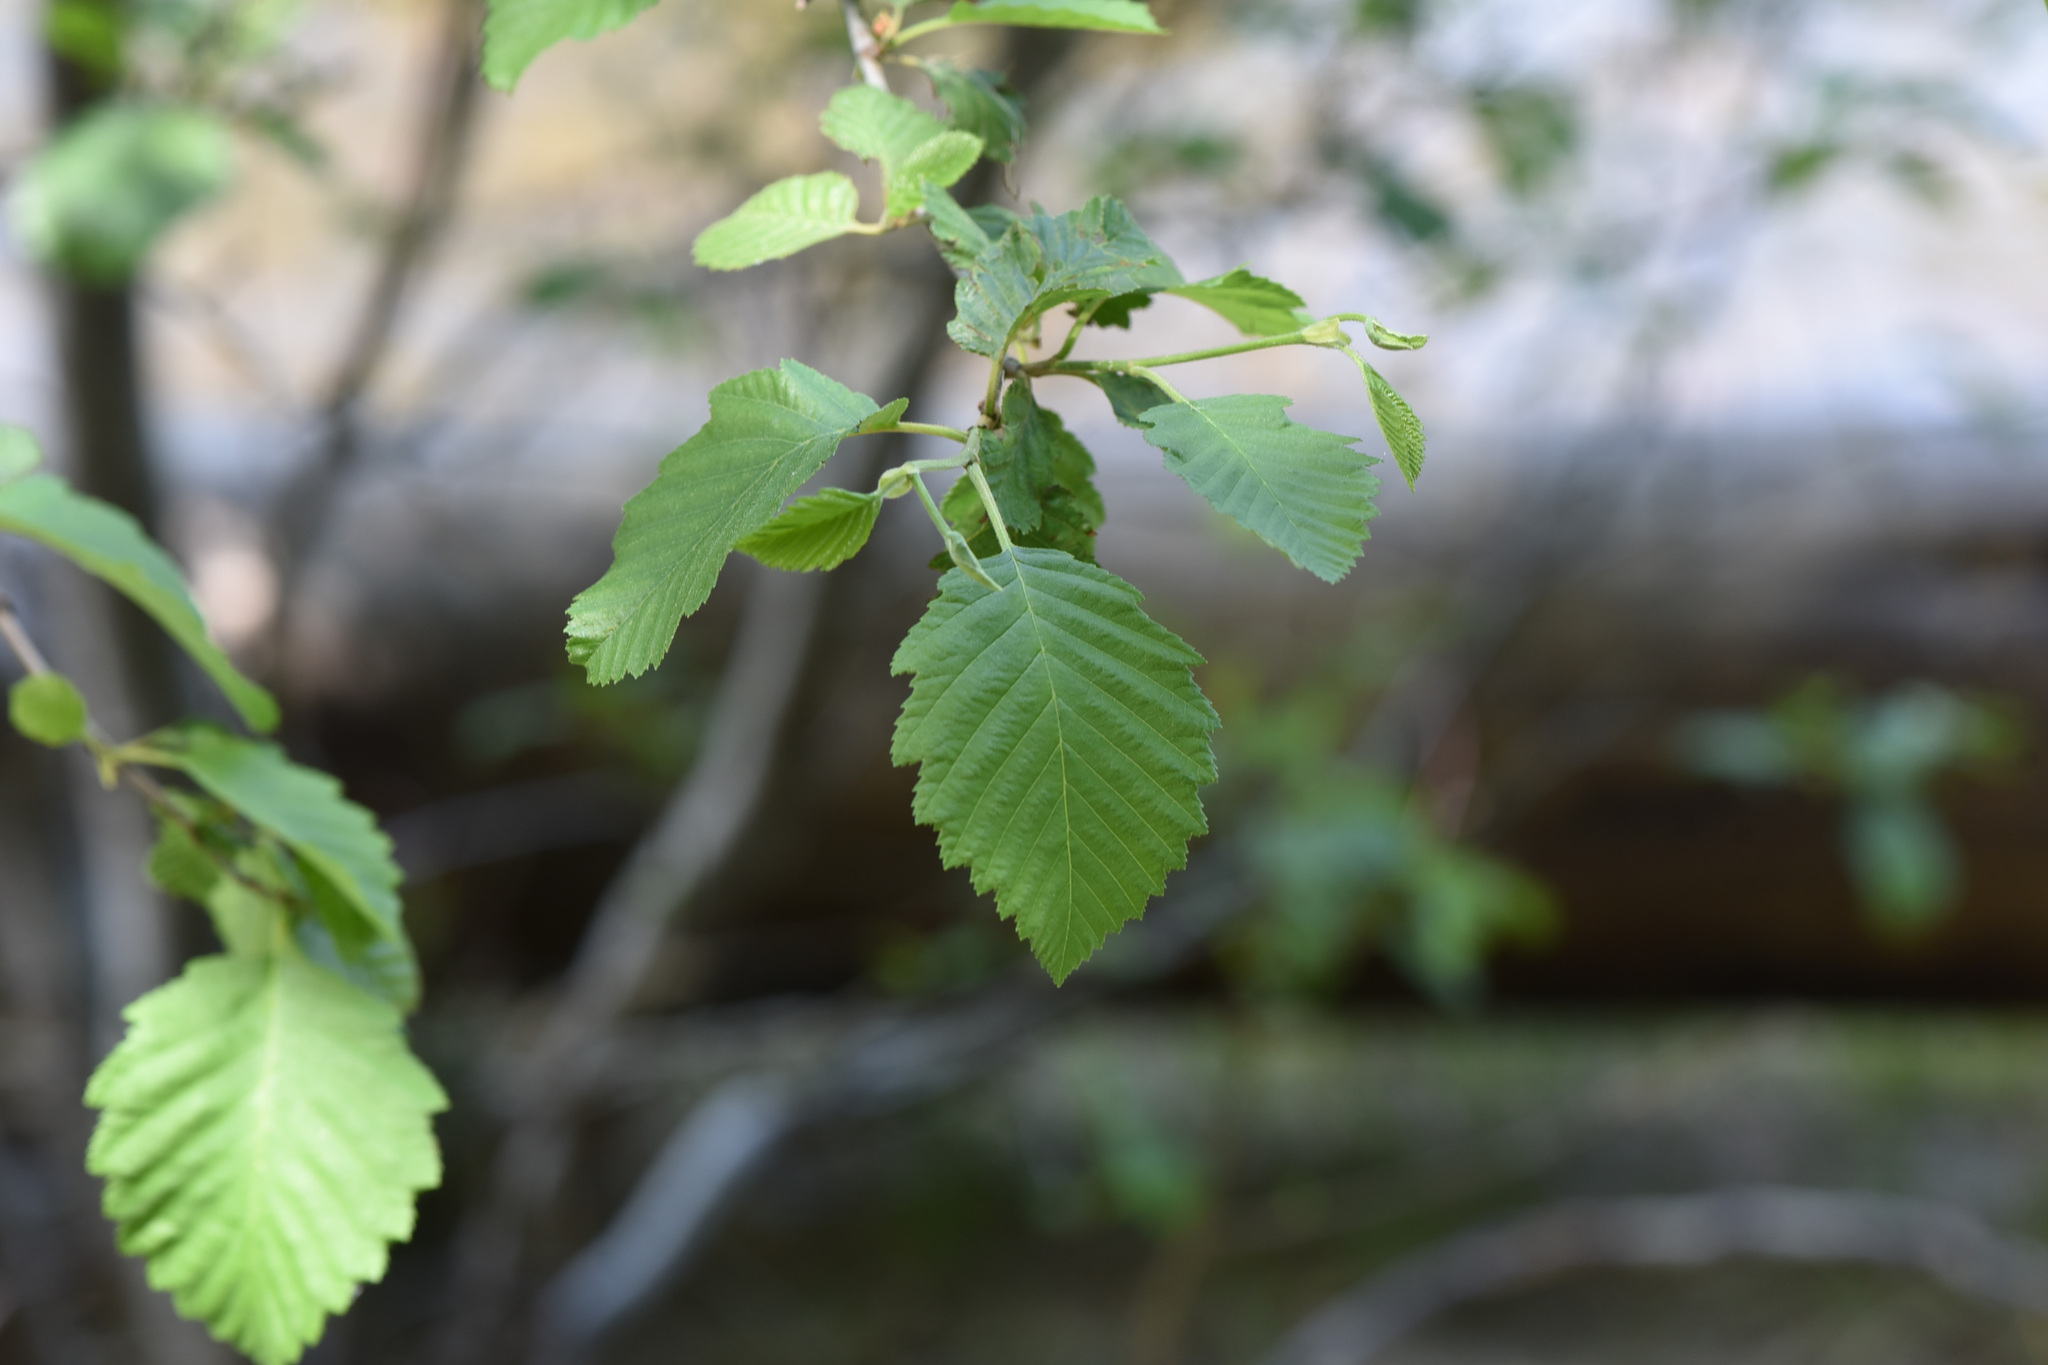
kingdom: Plantae
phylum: Tracheophyta
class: Magnoliopsida
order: Fagales
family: Betulaceae
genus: Alnus
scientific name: Alnus incana
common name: Grey alder
